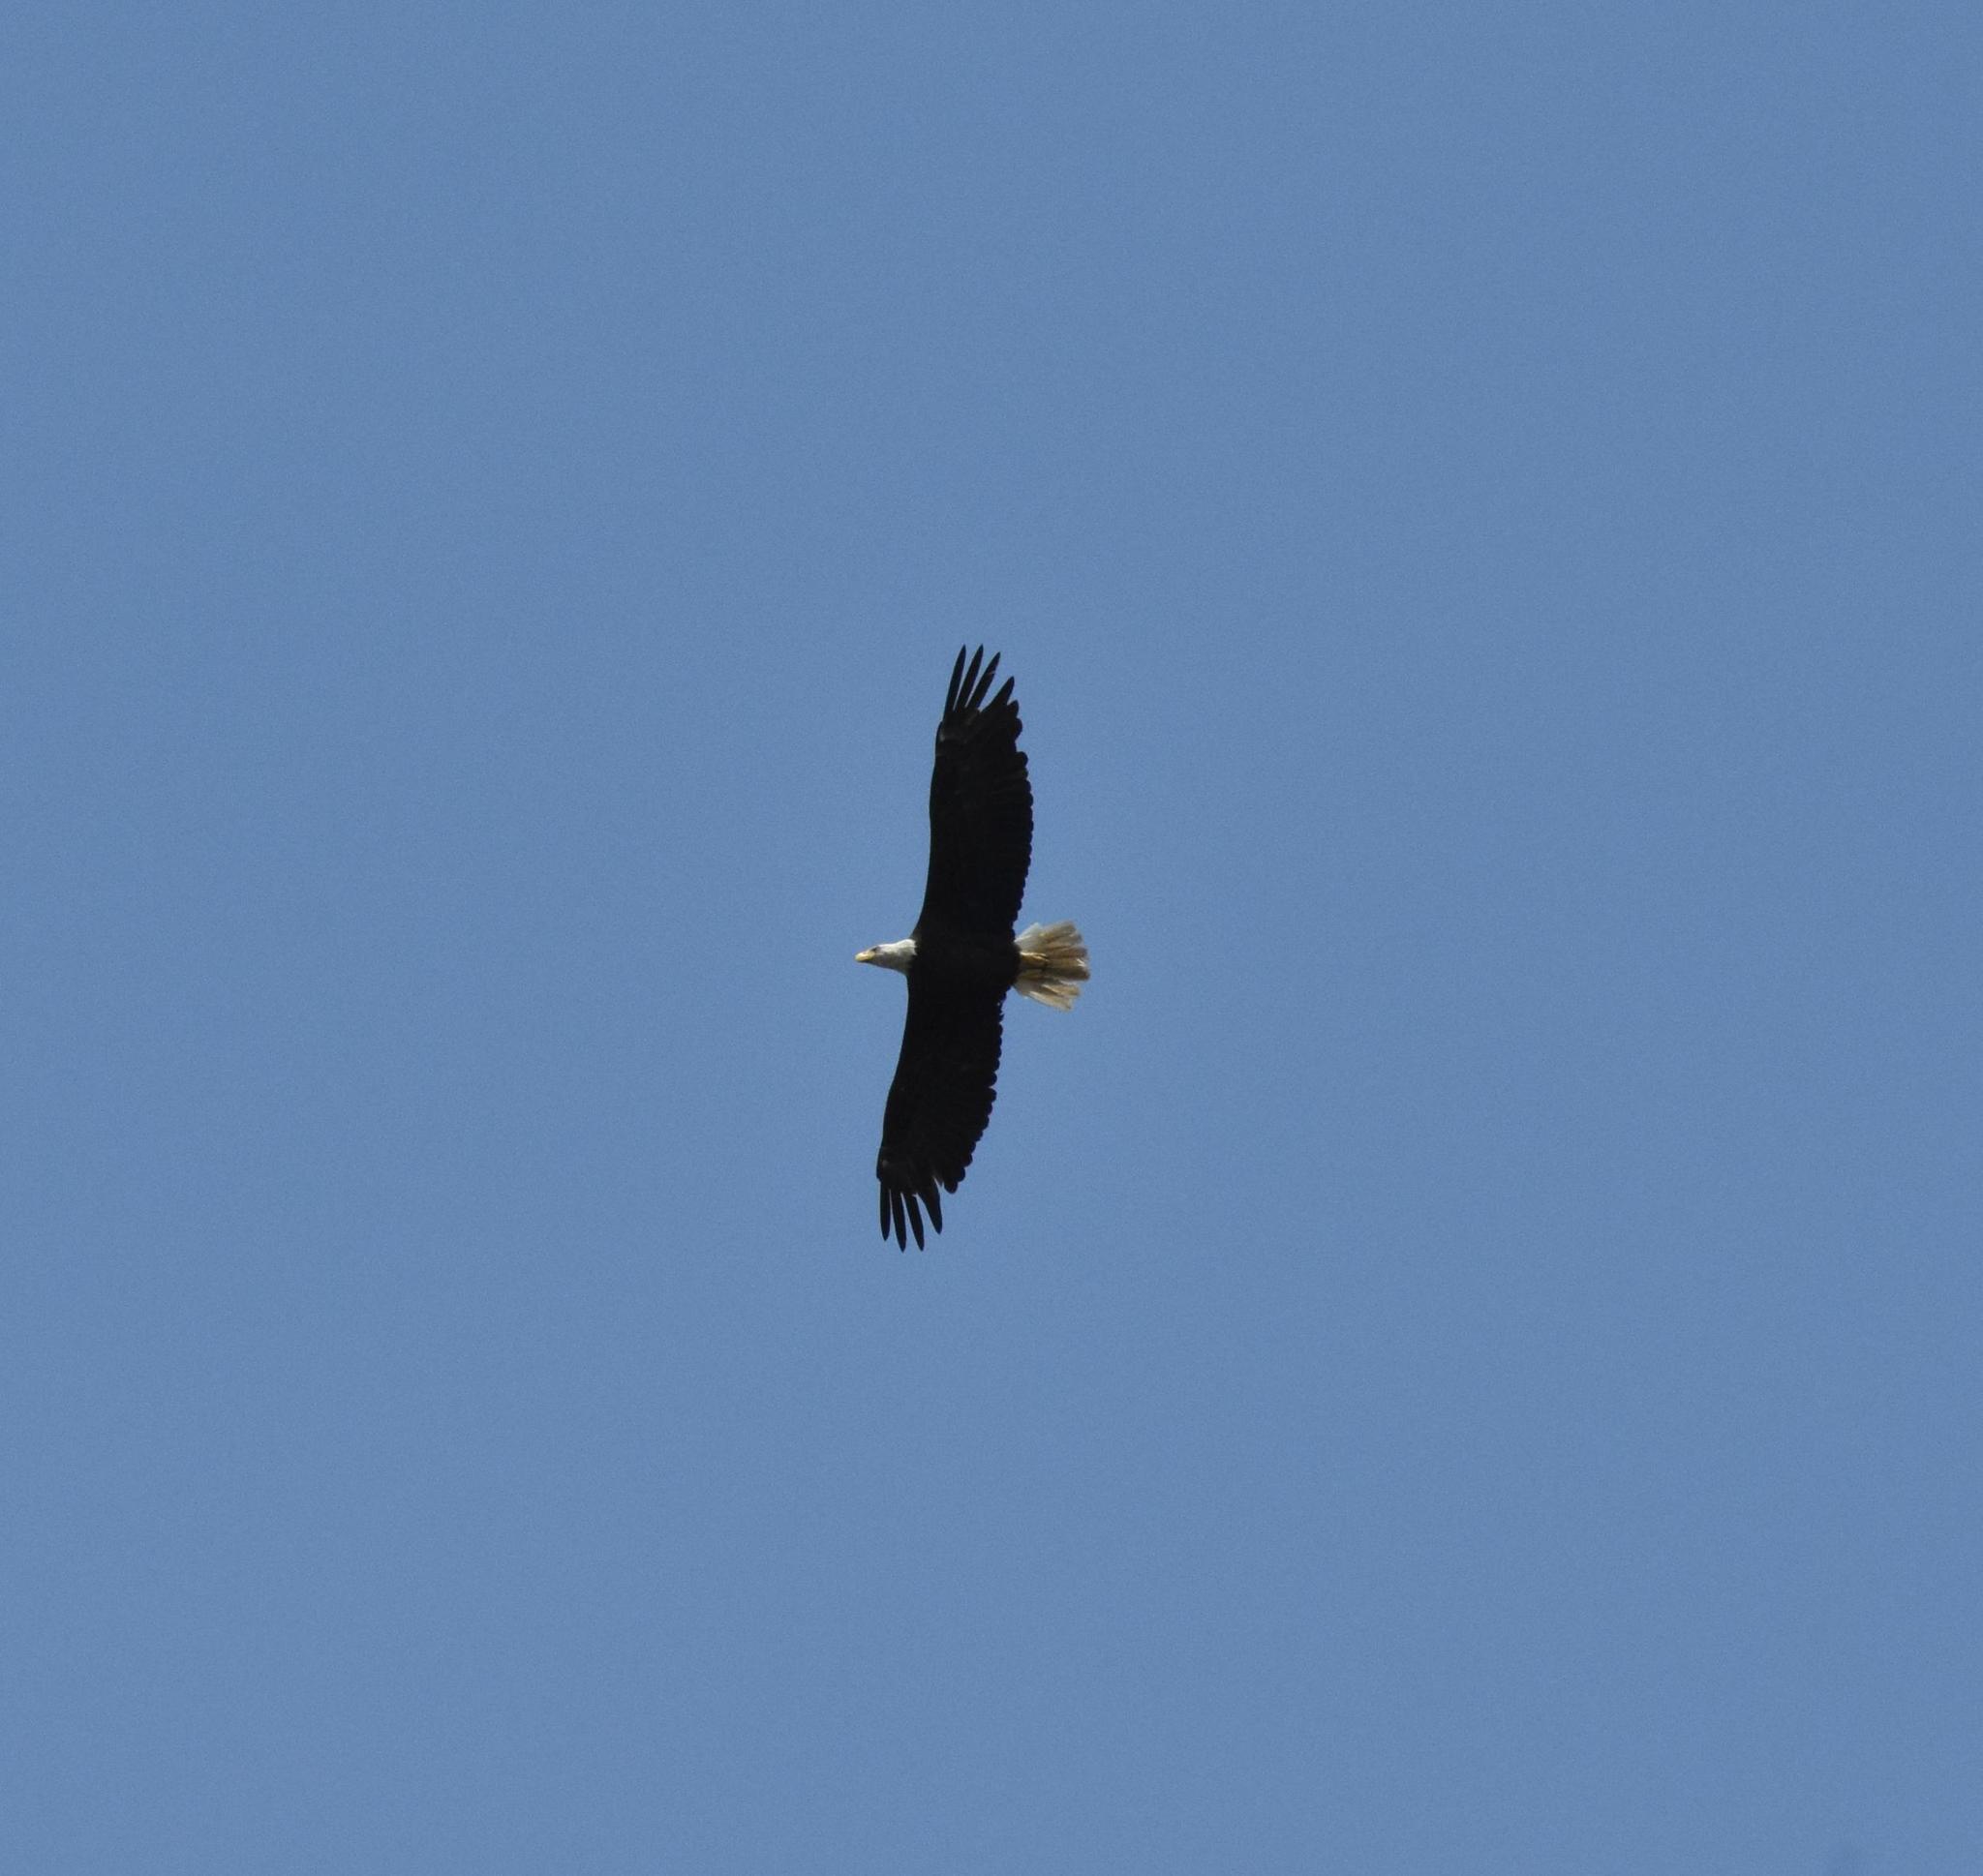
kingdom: Animalia
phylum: Chordata
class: Aves
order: Accipitriformes
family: Accipitridae
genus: Haliaeetus
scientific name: Haliaeetus leucocephalus
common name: Bald eagle
